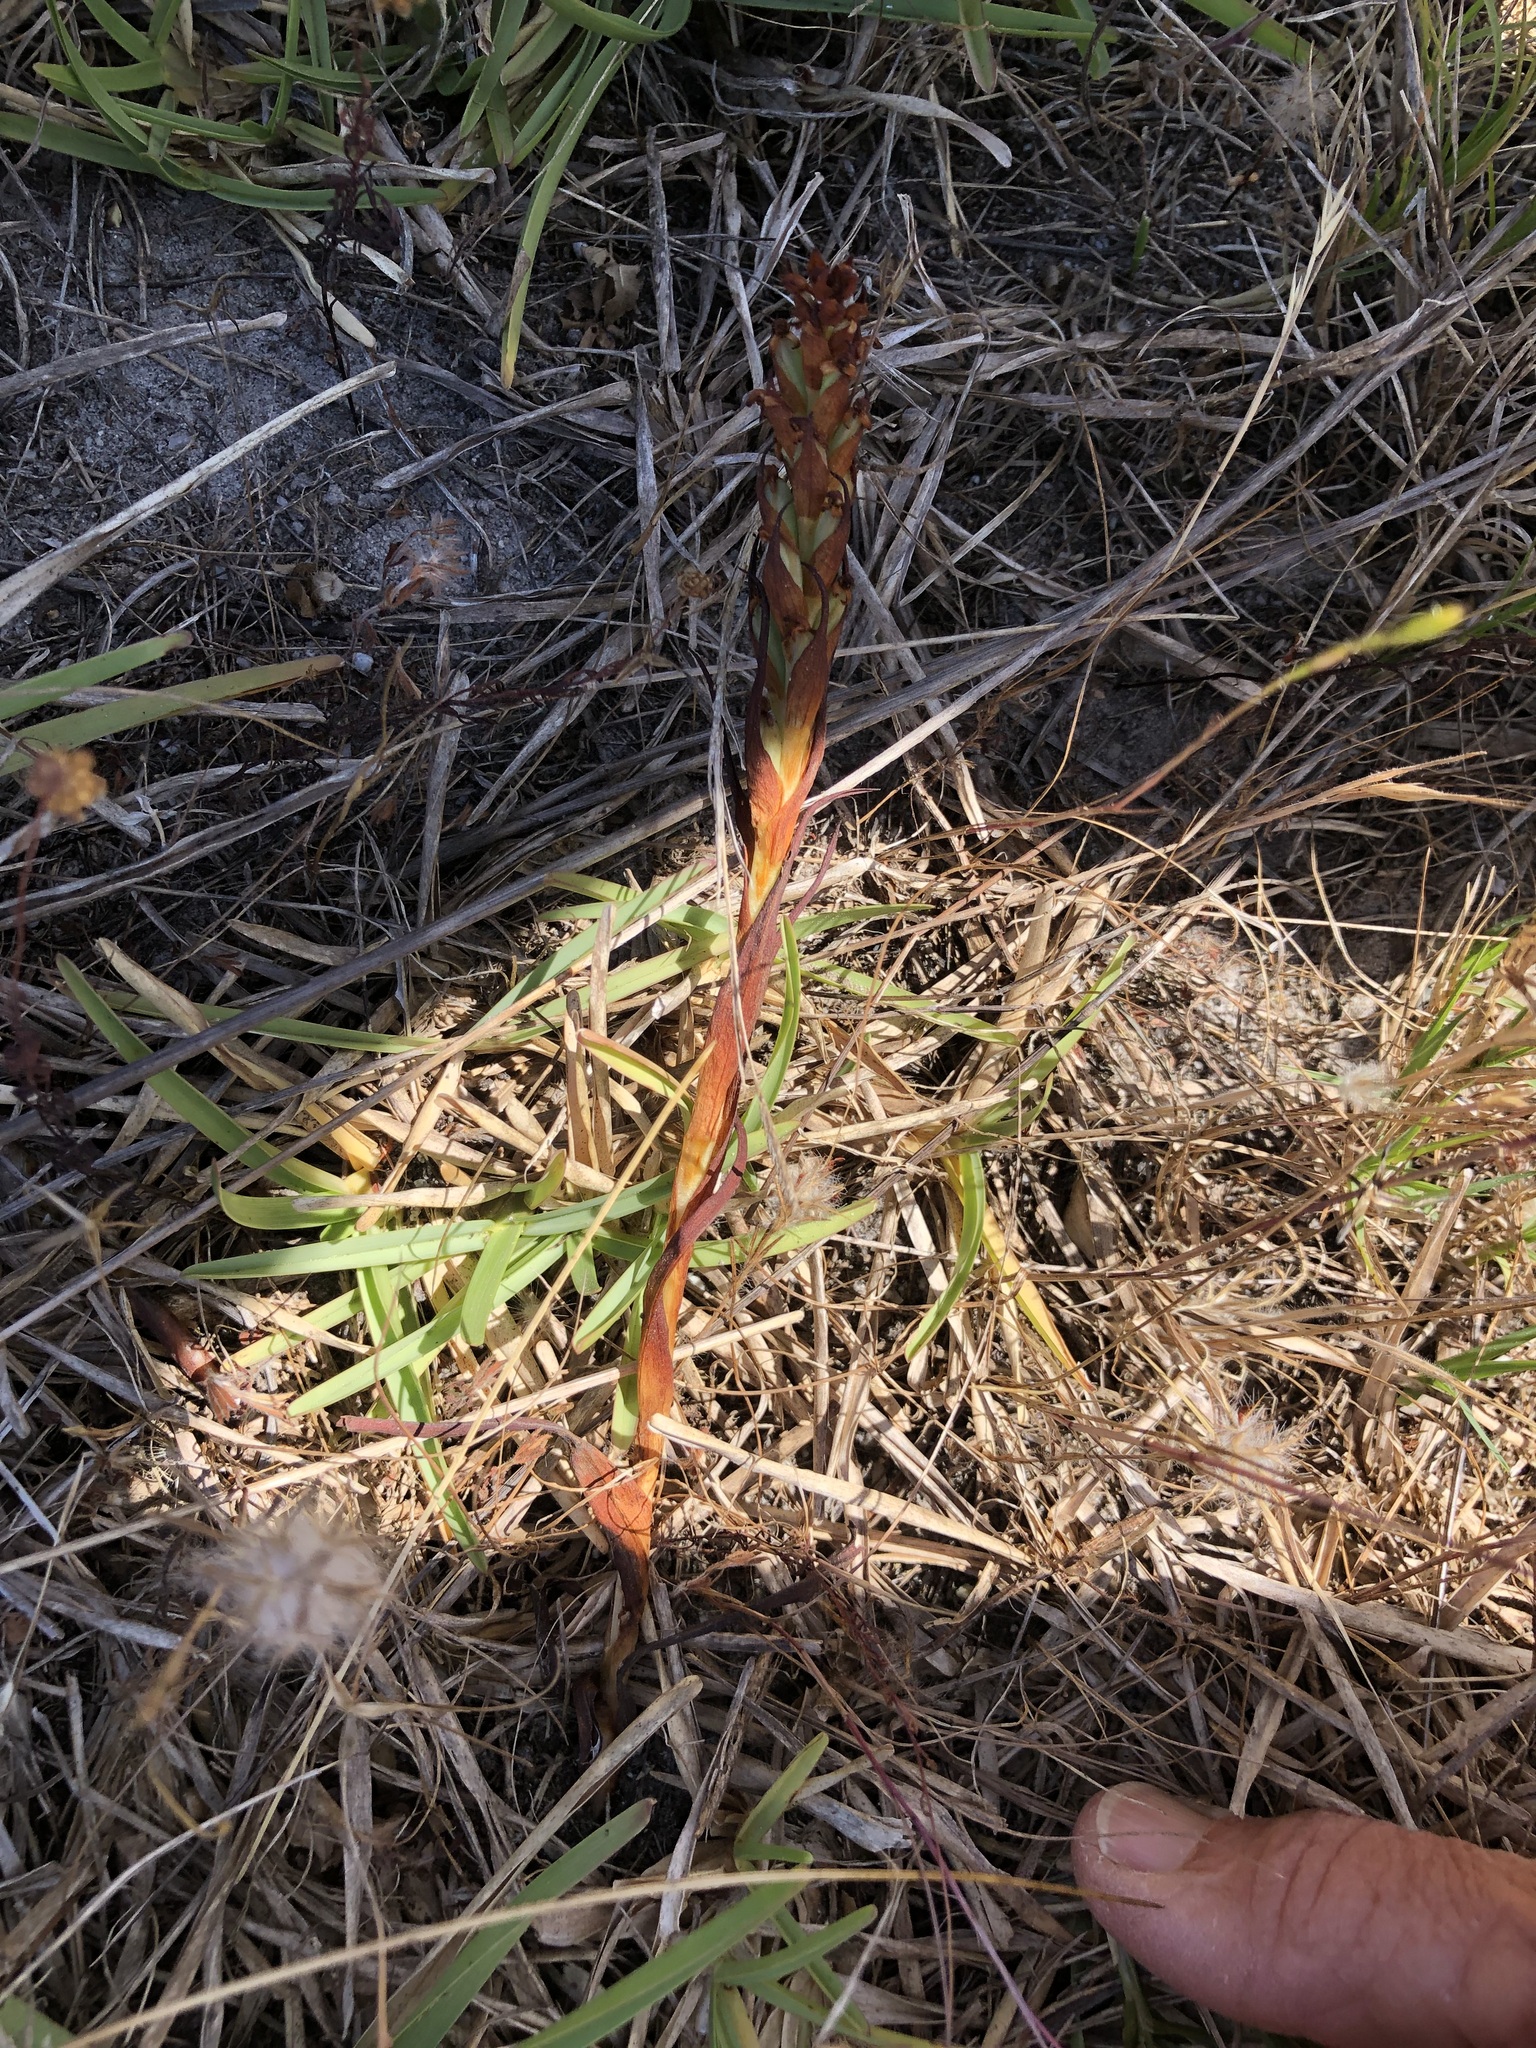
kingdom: Plantae
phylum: Tracheophyta
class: Liliopsida
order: Asparagales
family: Orchidaceae
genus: Disa
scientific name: Disa bracteata
